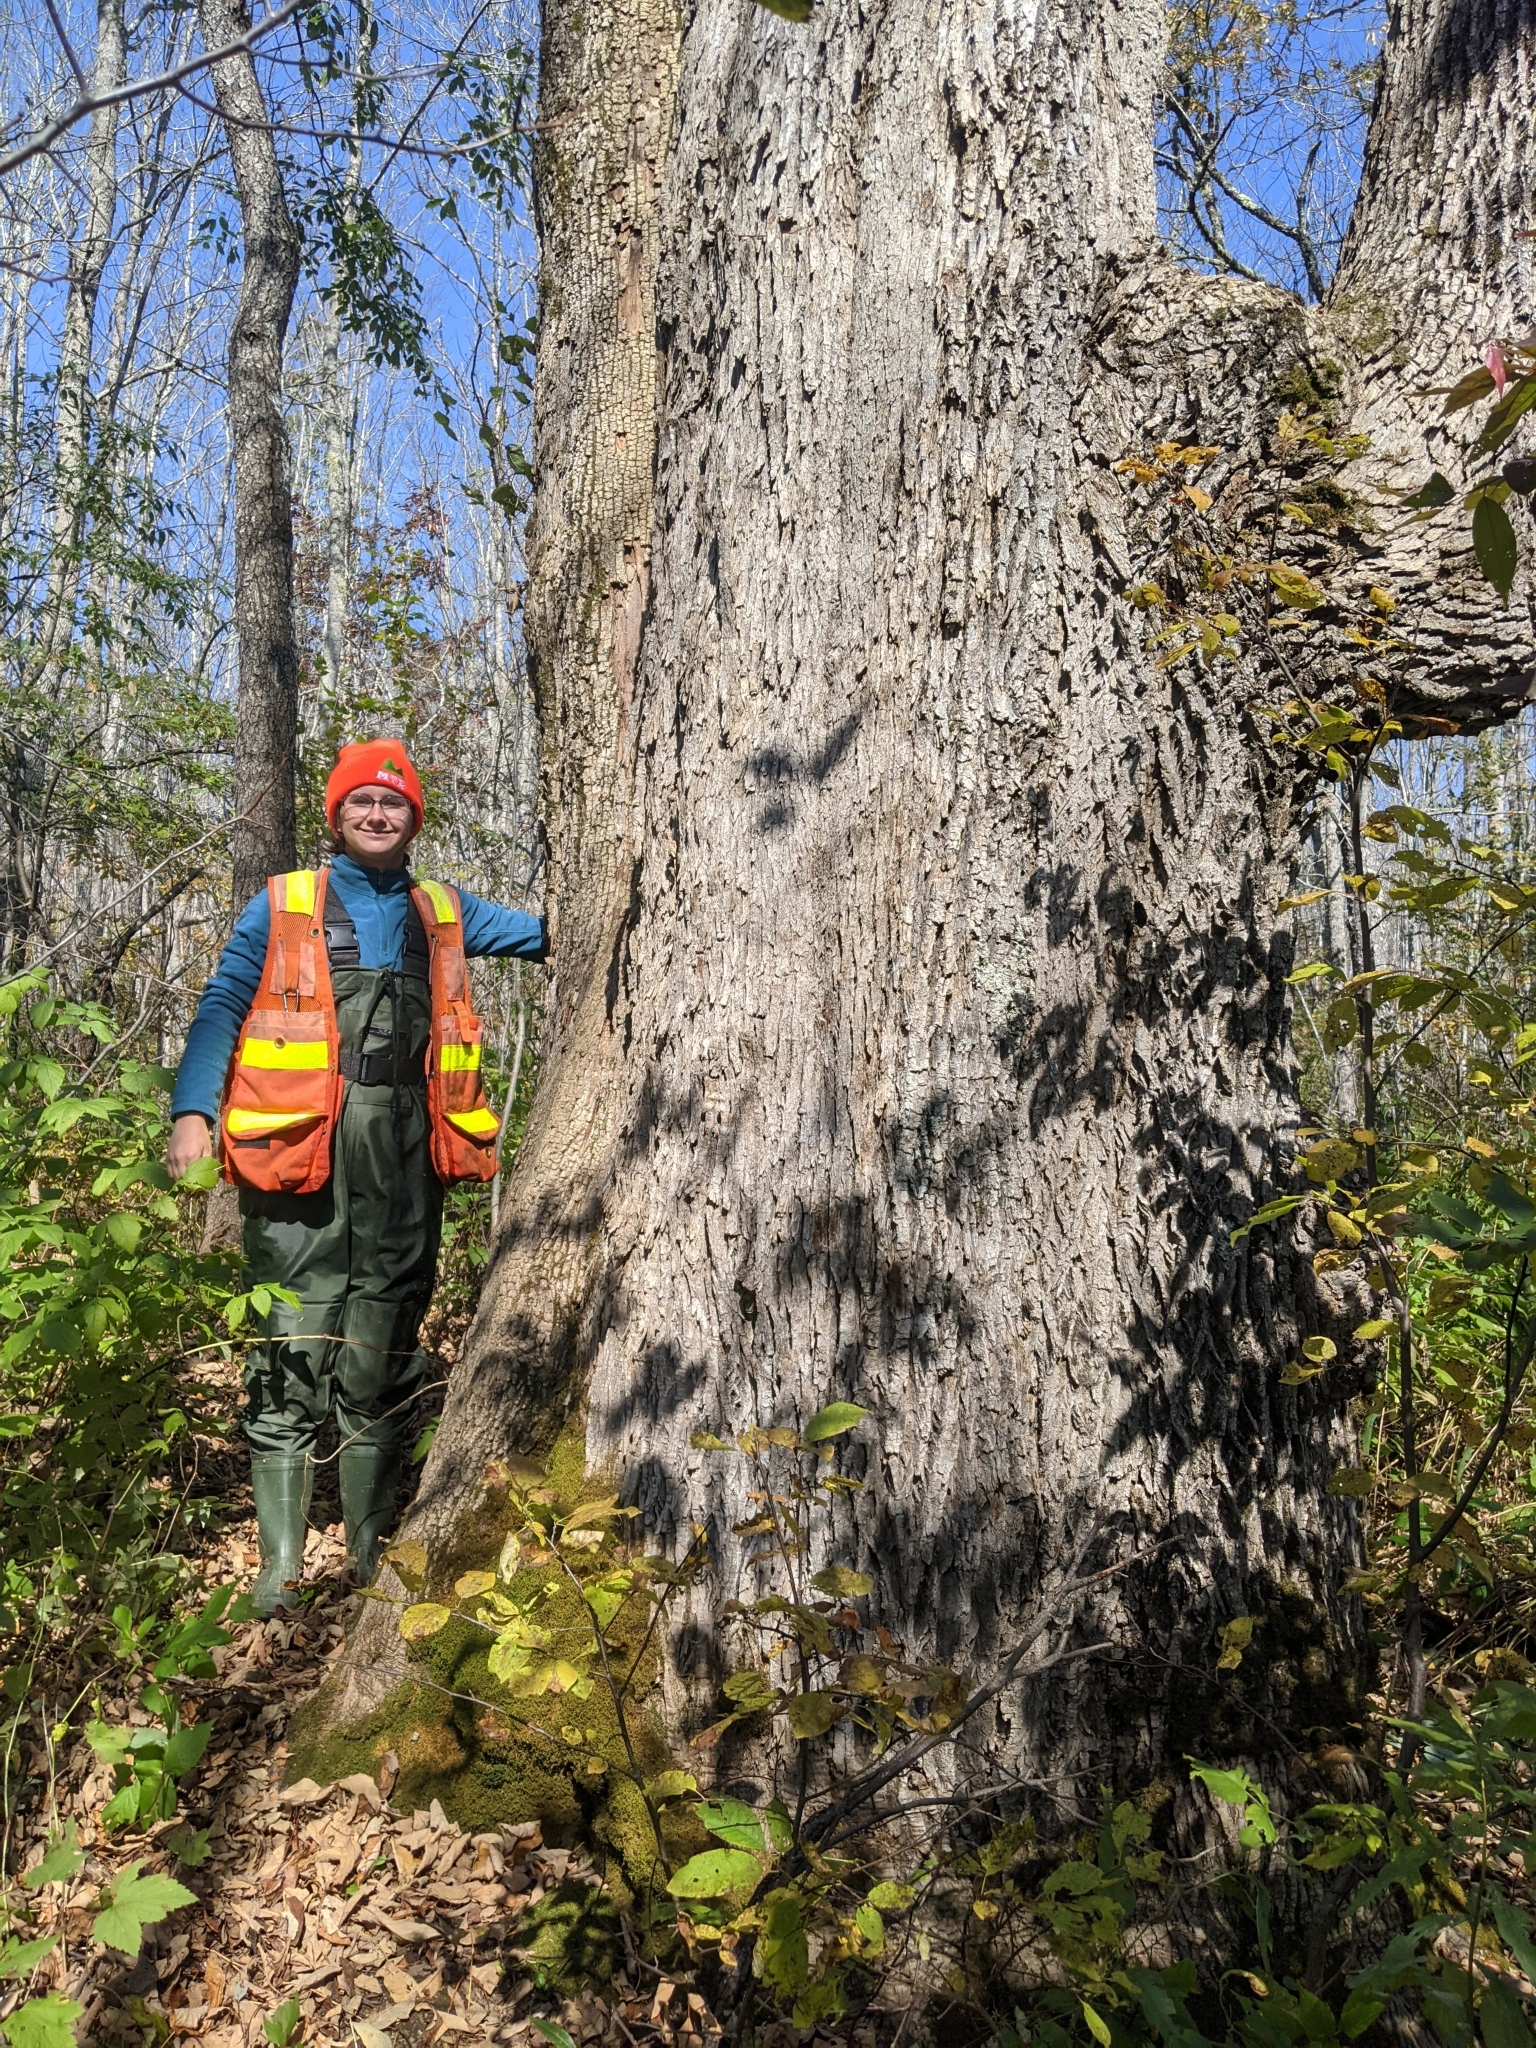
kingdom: Plantae
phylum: Tracheophyta
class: Magnoliopsida
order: Lamiales
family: Oleaceae
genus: Fraxinus
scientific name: Fraxinus americana
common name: White ash
